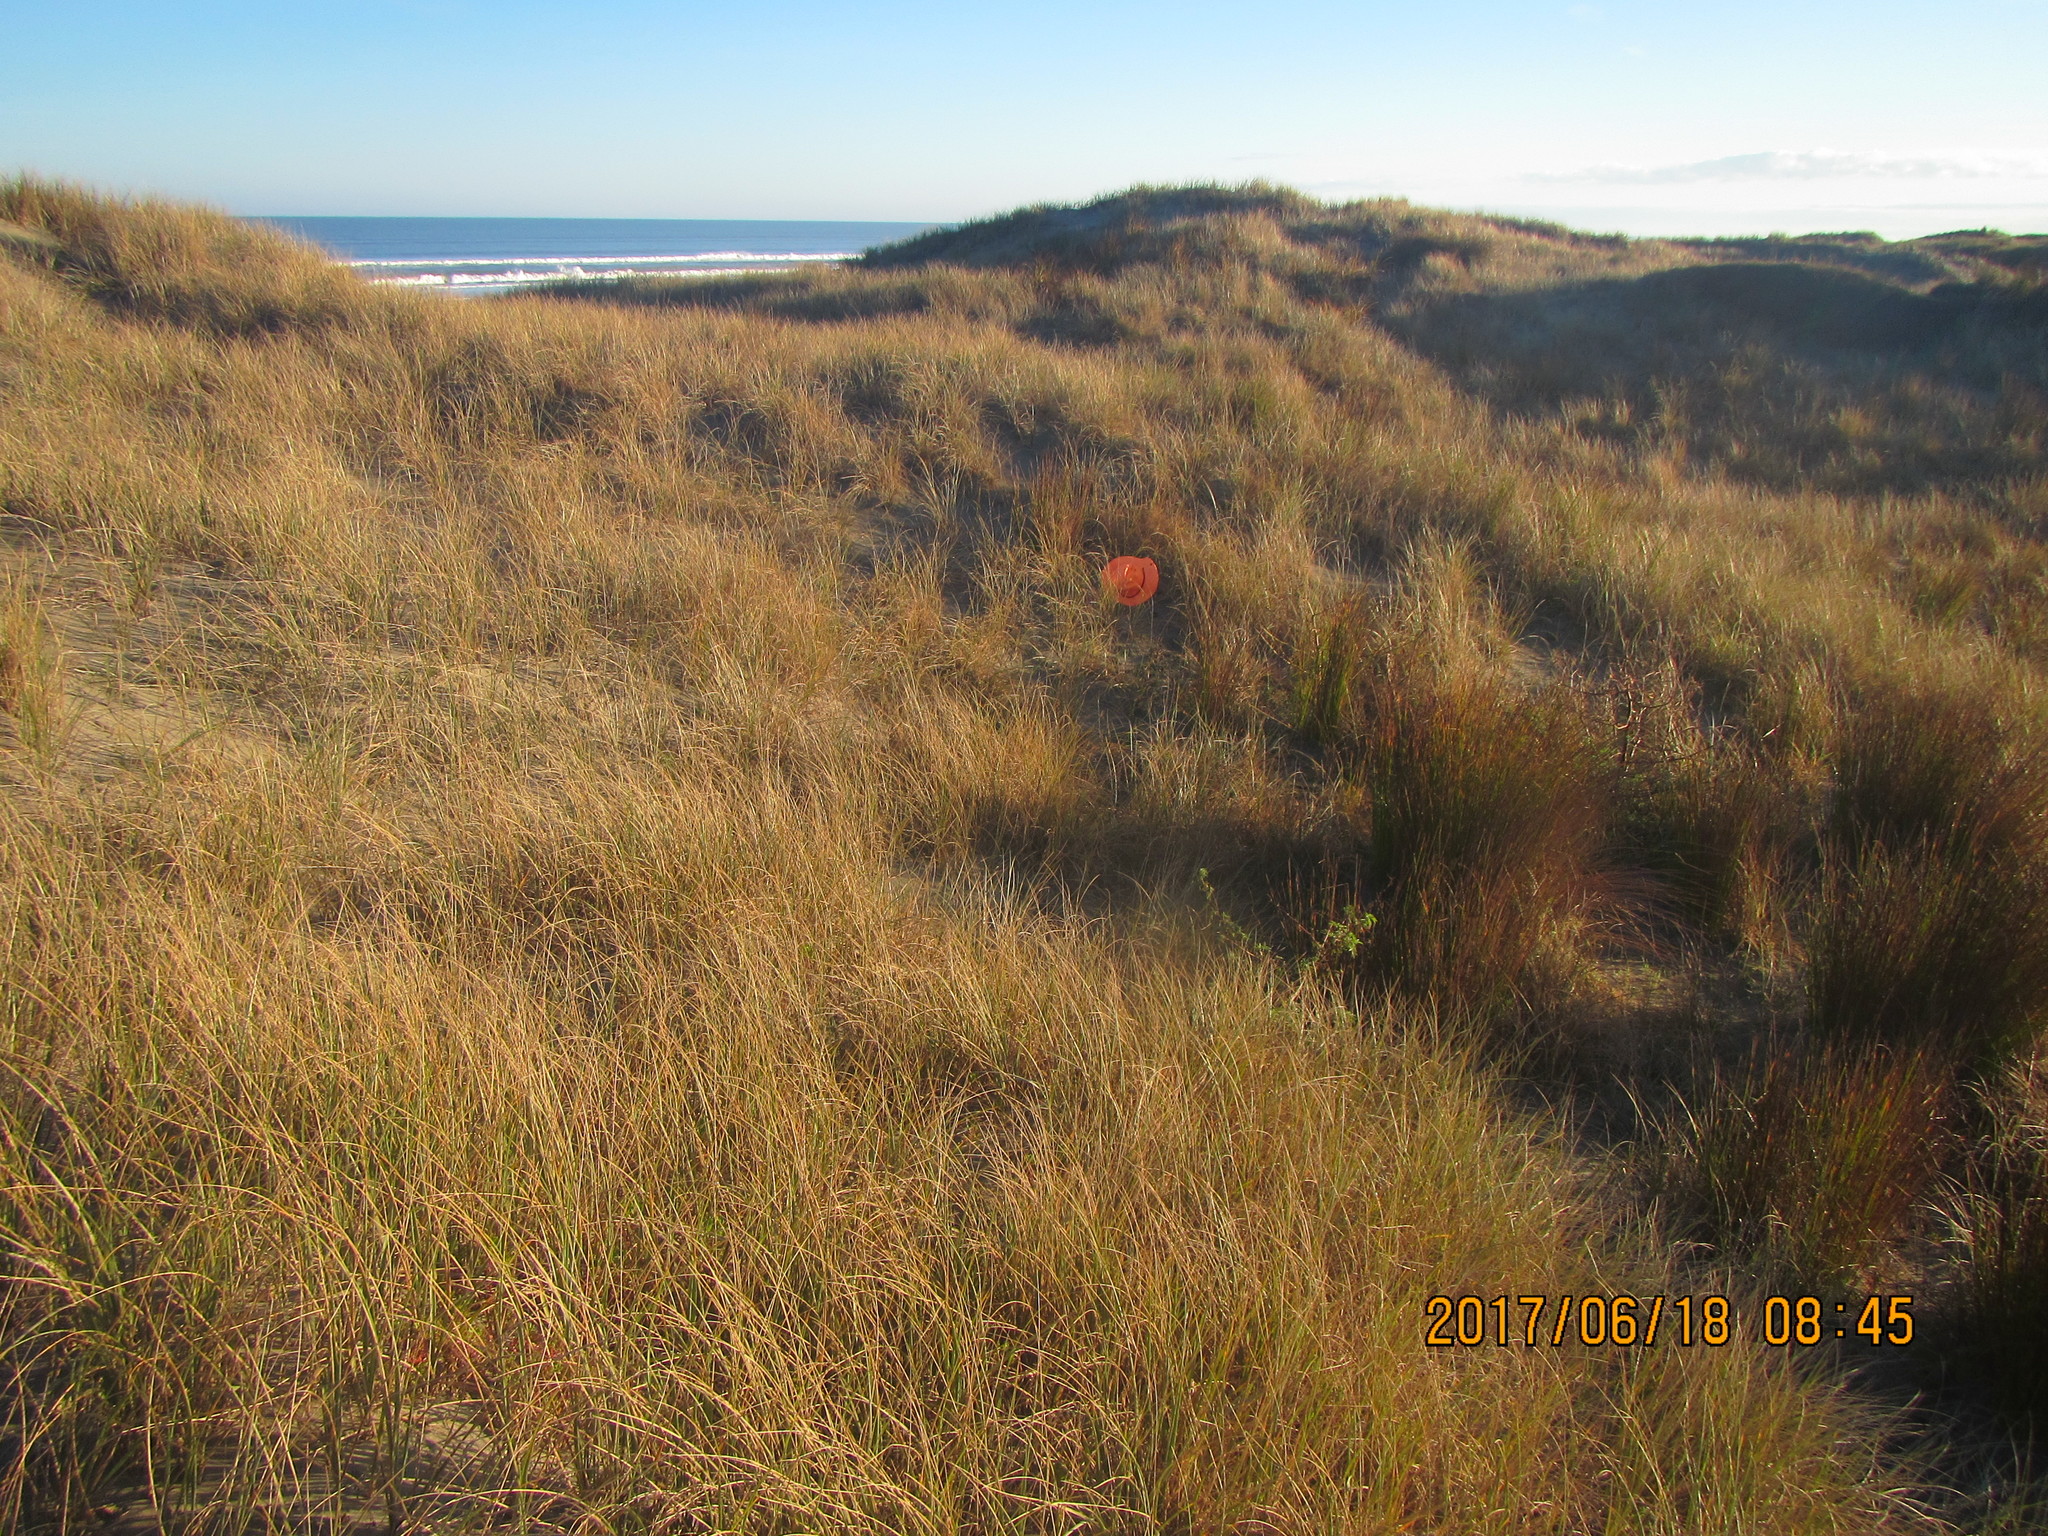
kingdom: Fungi
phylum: Ascomycota
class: Pezizomycetes
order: Pezizales
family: Pezizaceae
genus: Peziza
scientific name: Peziza oceanica
